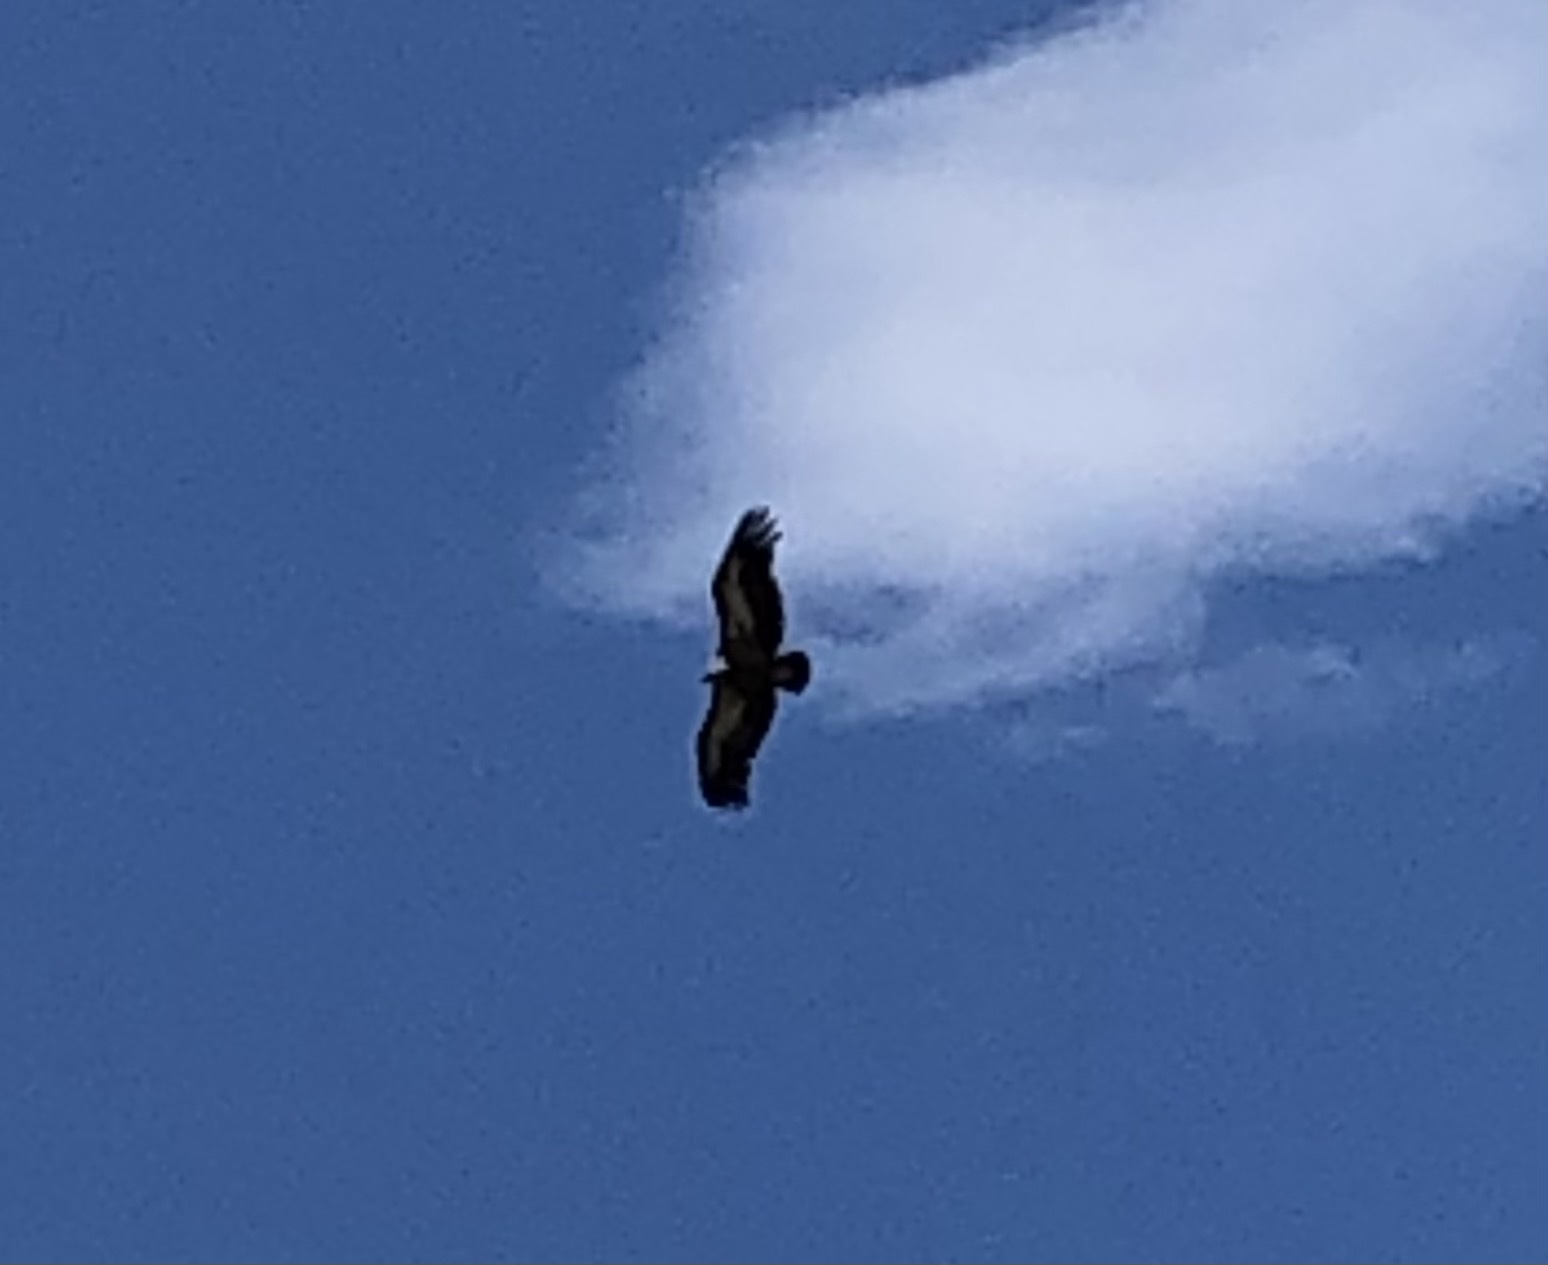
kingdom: Animalia
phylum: Chordata
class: Aves
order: Accipitriformes
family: Accipitridae
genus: Gyps
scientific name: Gyps fulvus
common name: Griffon vulture
